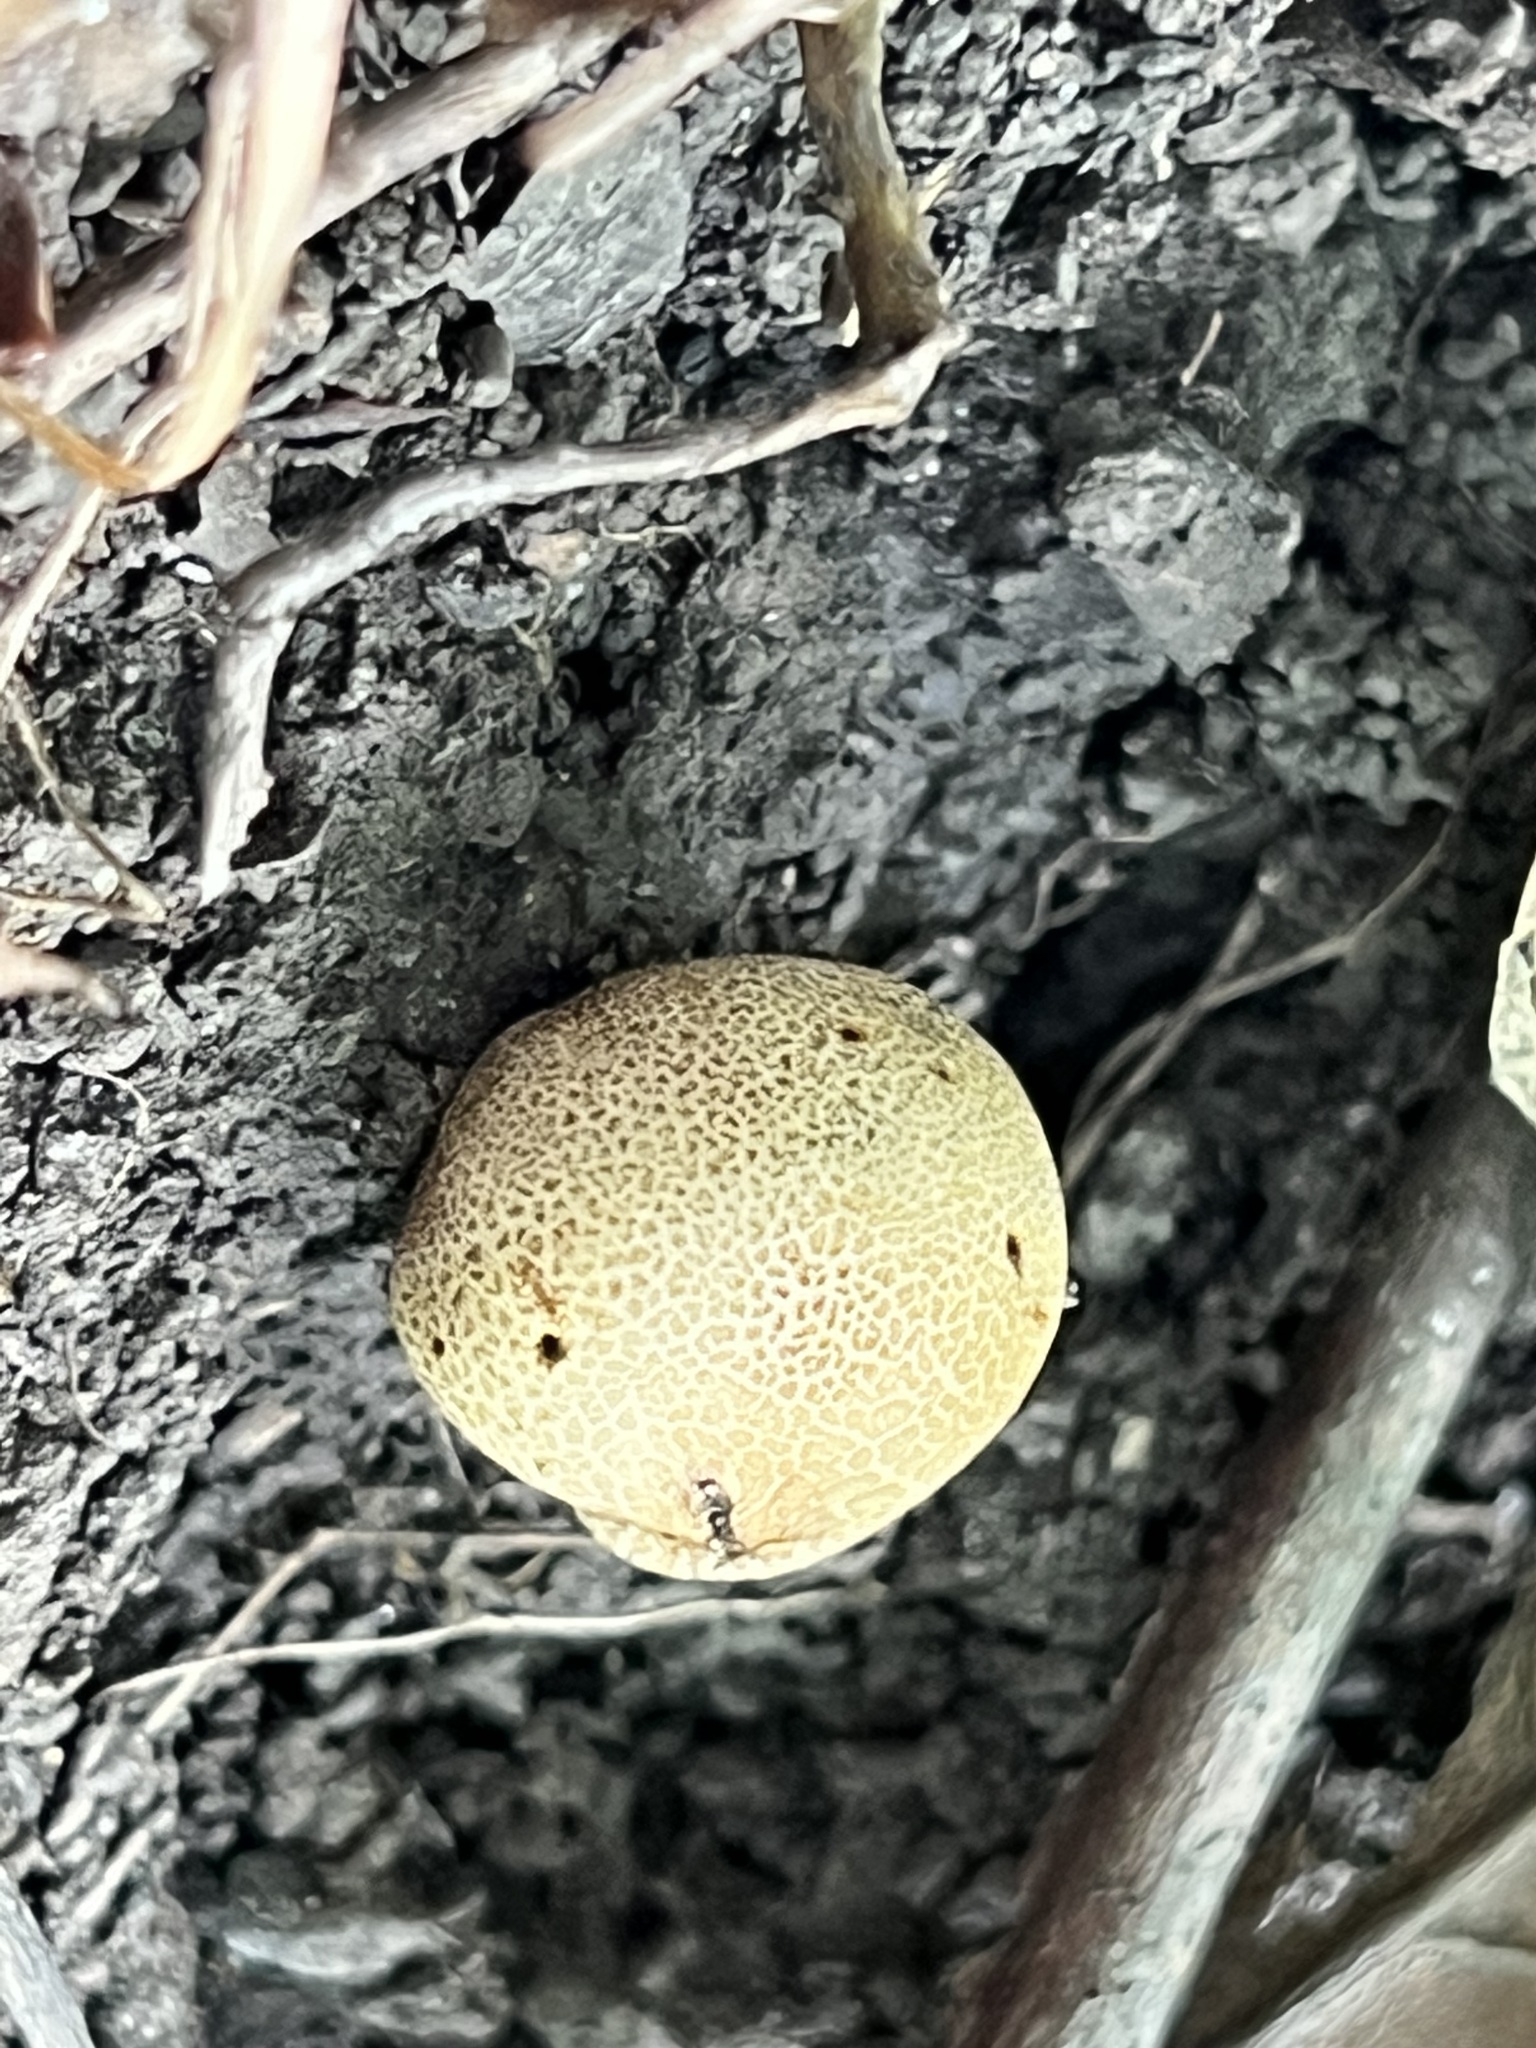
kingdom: Fungi
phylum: Basidiomycota
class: Agaricomycetes
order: Boletales
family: Sclerodermataceae
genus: Scleroderma
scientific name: Scleroderma areolatum
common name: Leopard earthball
